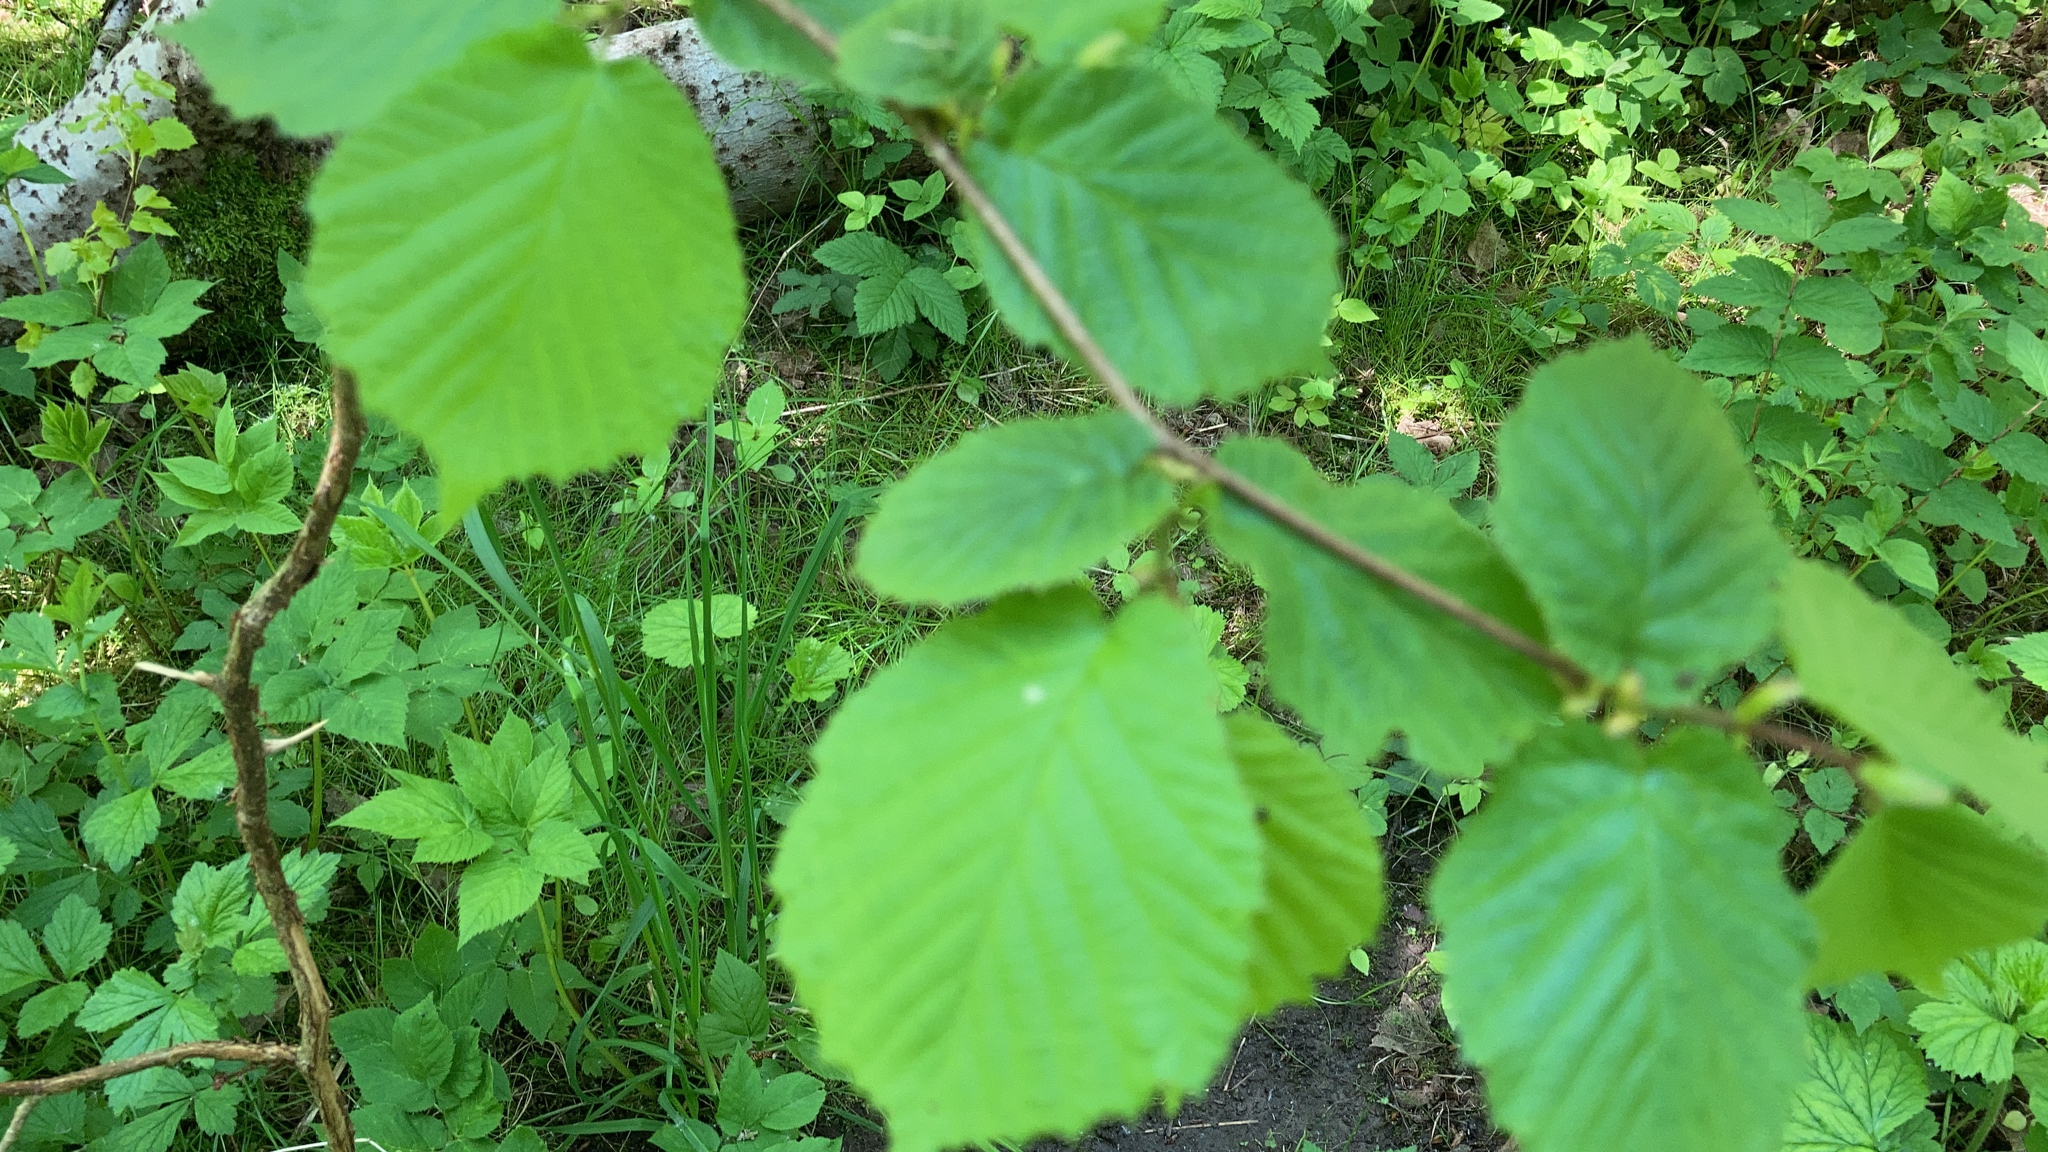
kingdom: Plantae
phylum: Tracheophyta
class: Magnoliopsida
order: Fagales
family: Betulaceae
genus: Corylus
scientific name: Corylus avellana
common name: European hazel
